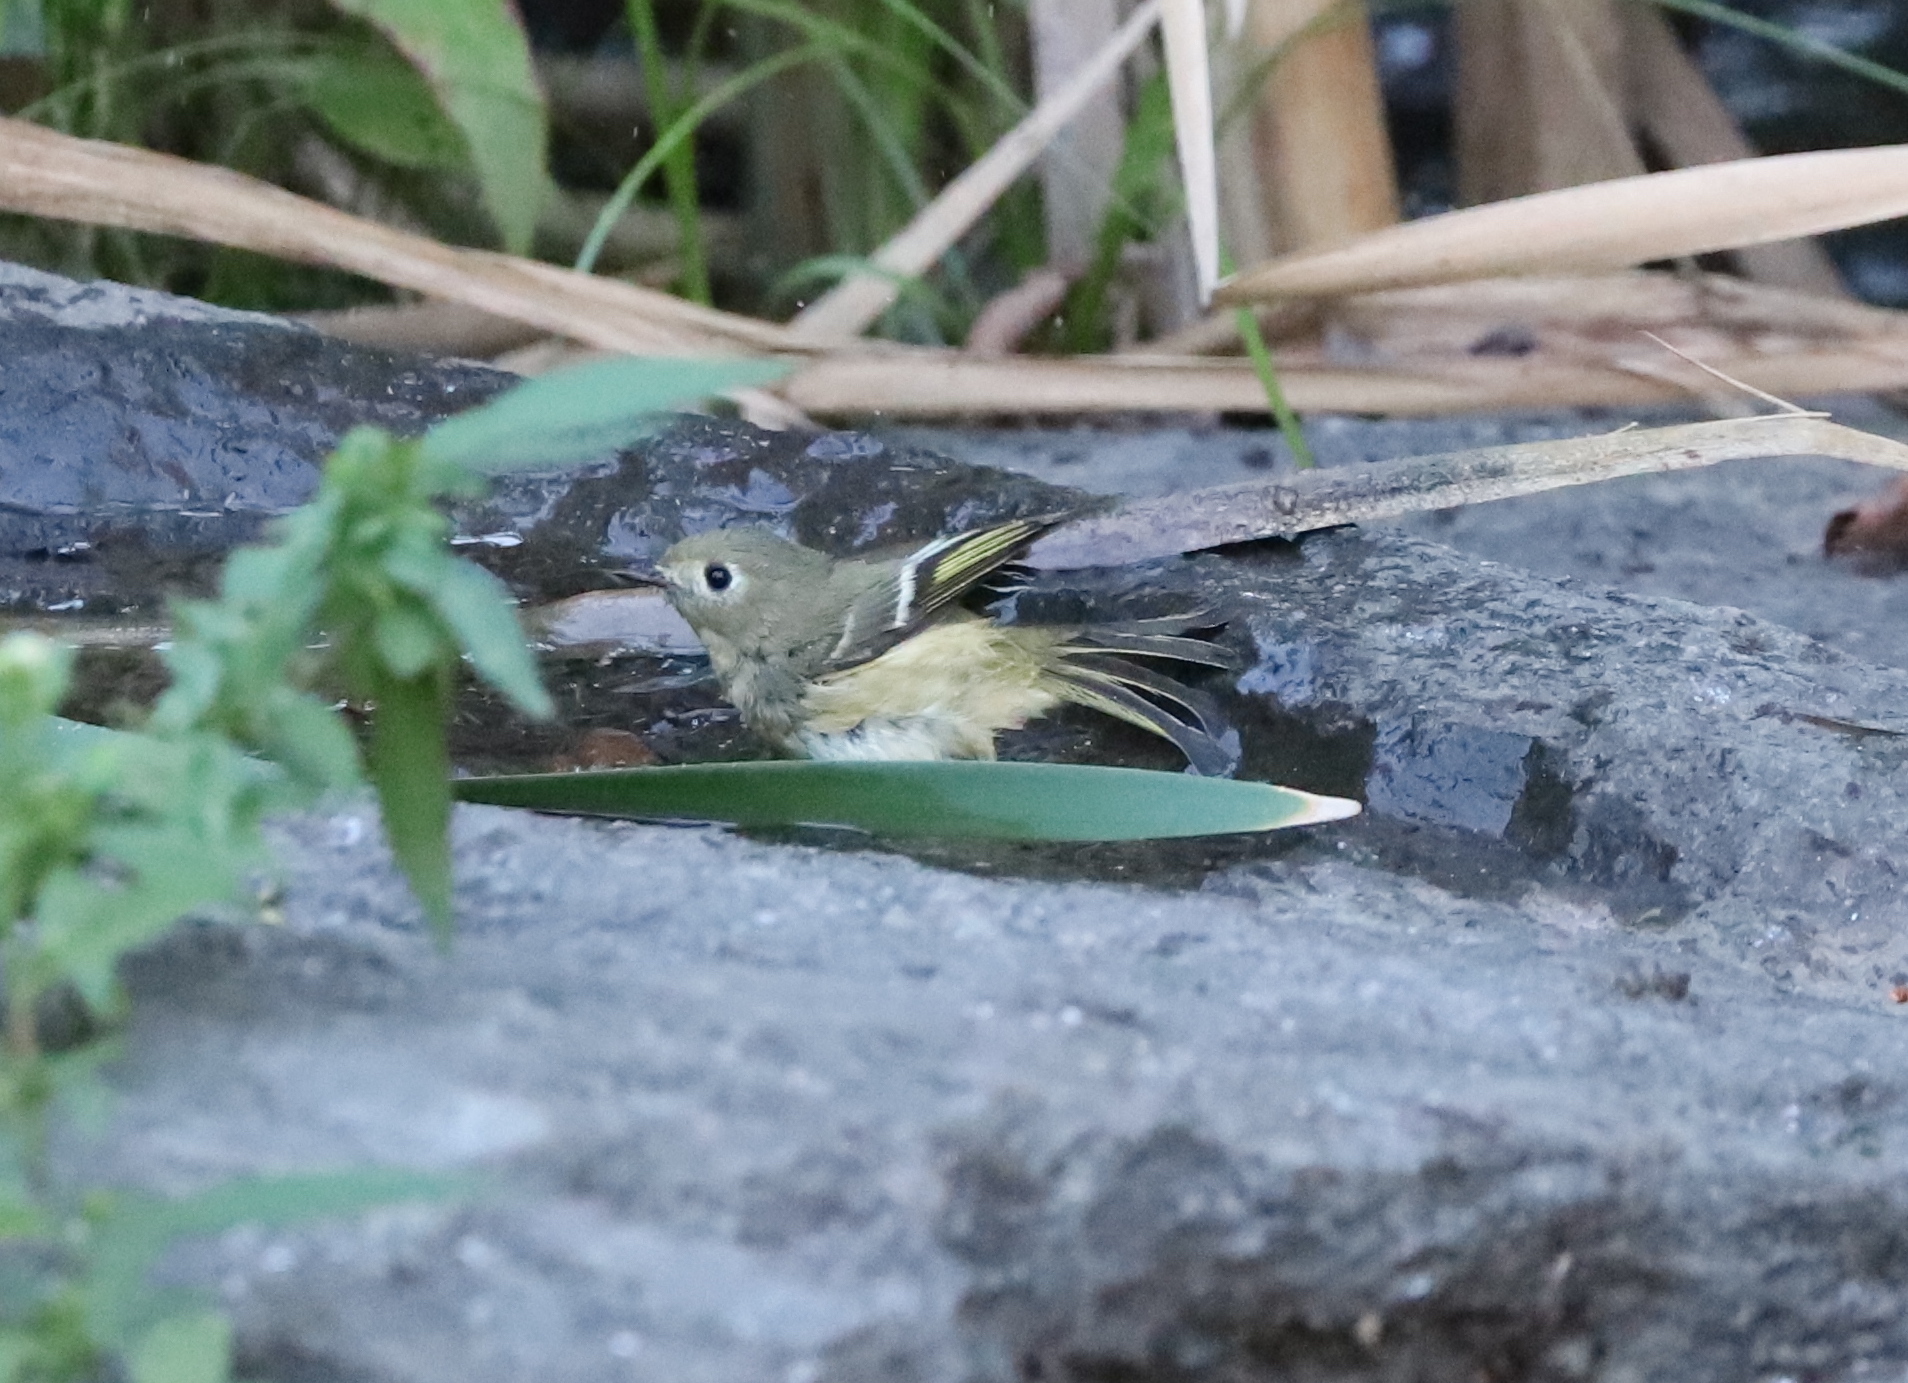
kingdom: Animalia
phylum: Chordata
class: Aves
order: Passeriformes
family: Regulidae
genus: Regulus
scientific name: Regulus calendula
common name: Ruby-crowned kinglet
